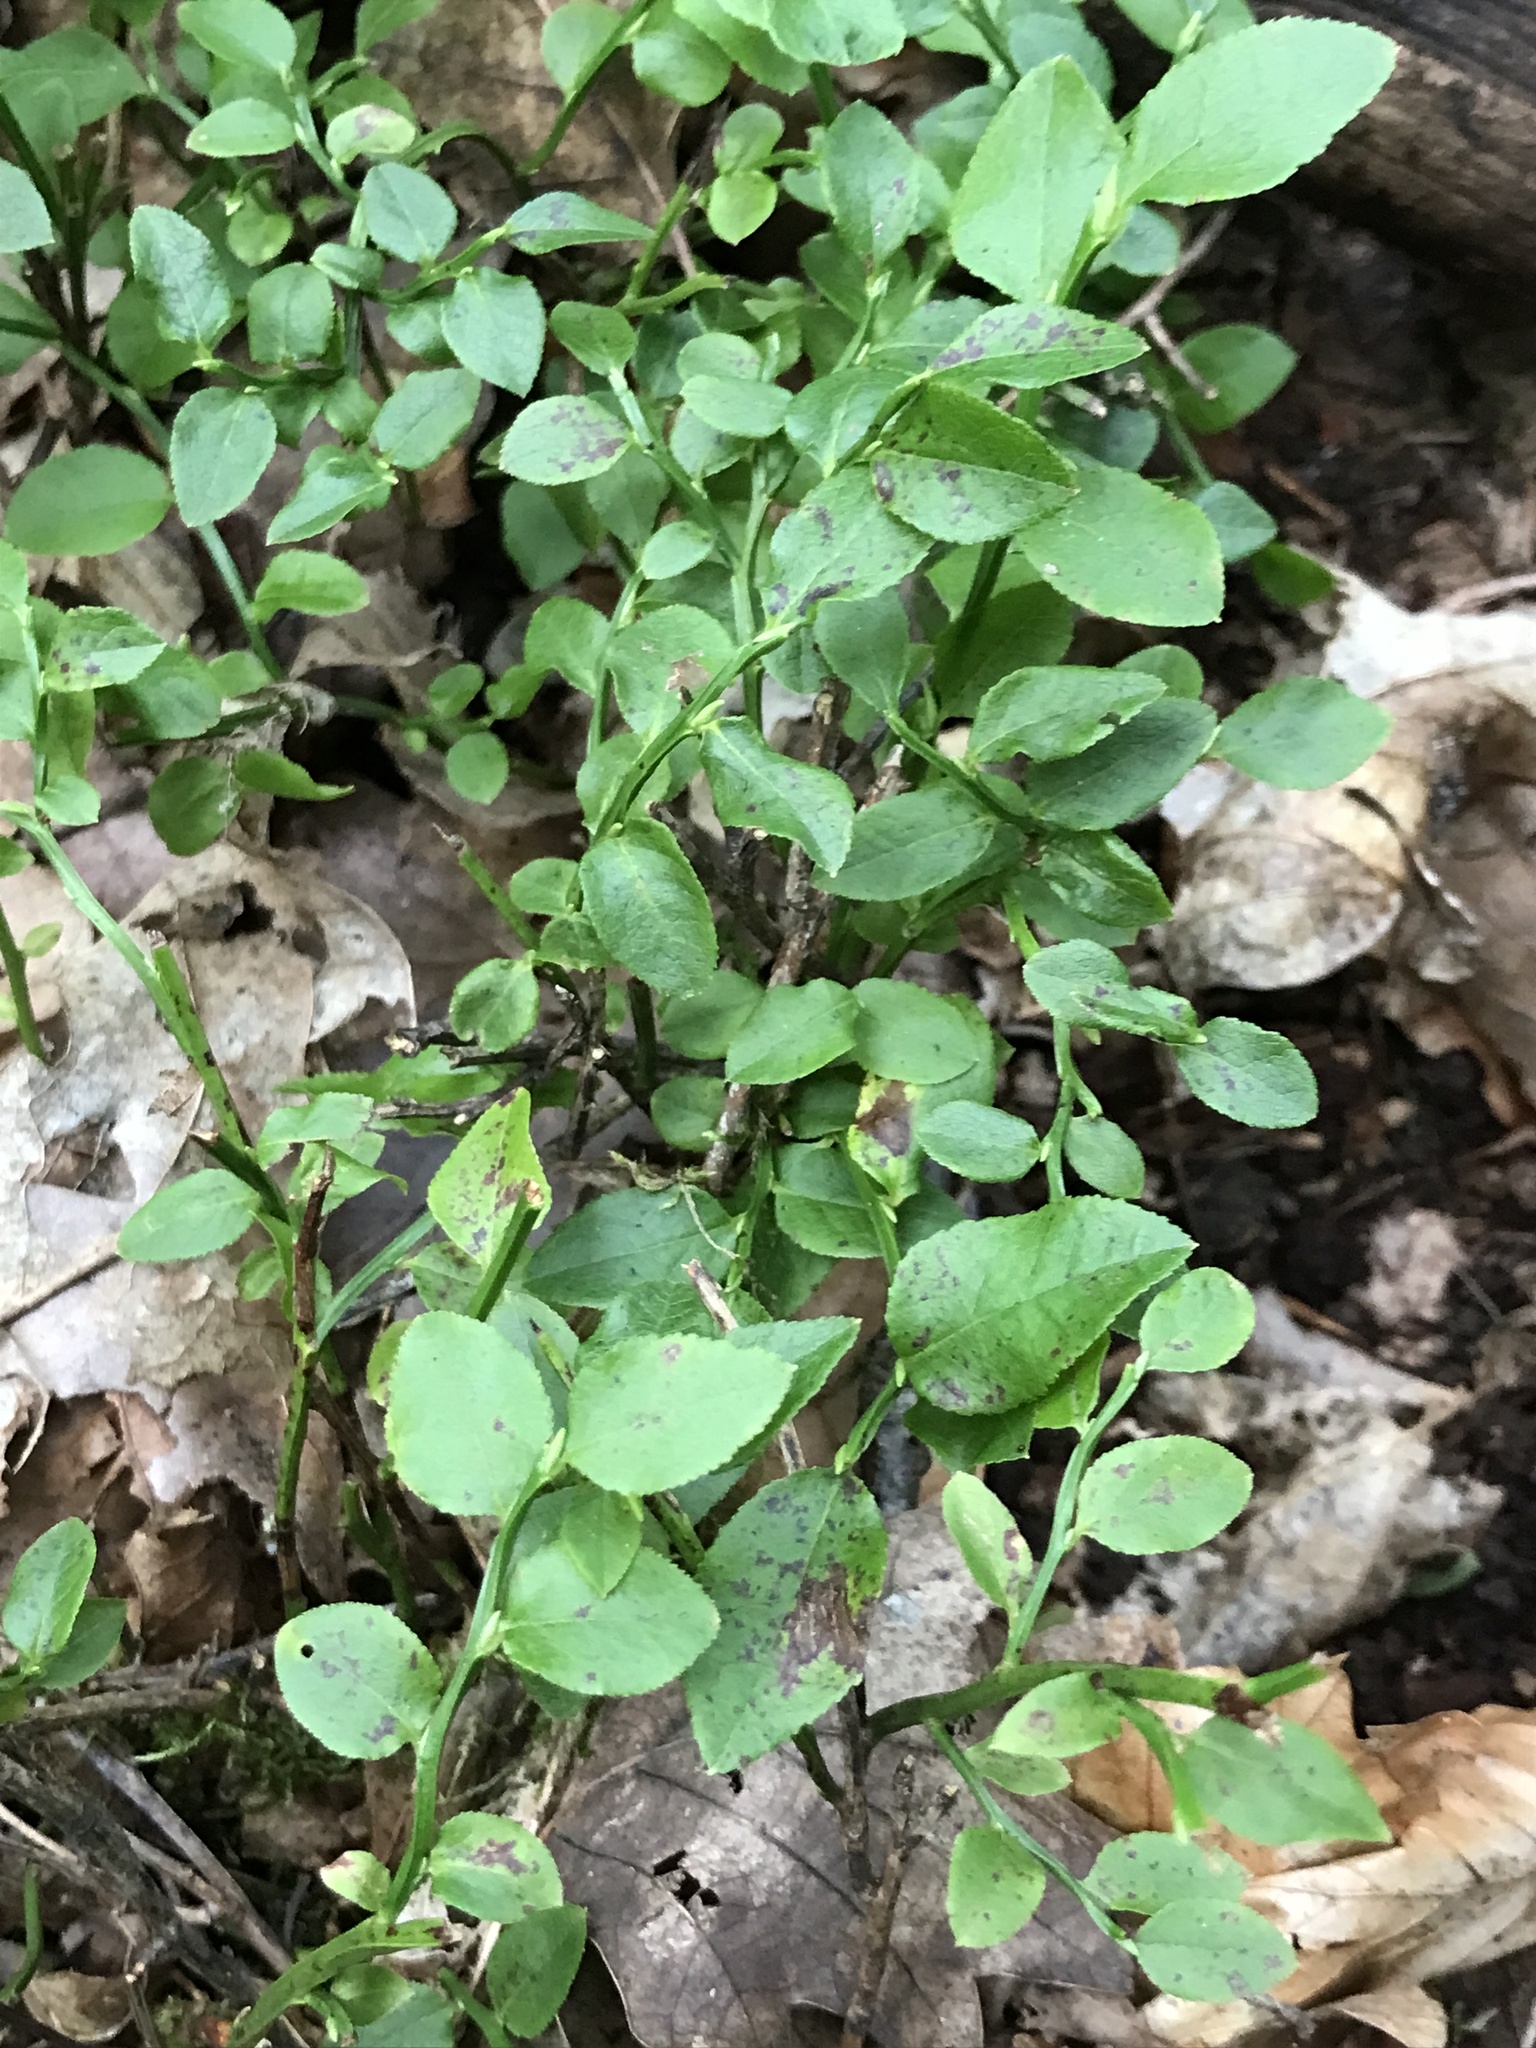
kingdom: Plantae
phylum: Tracheophyta
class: Magnoliopsida
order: Ericales
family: Ericaceae
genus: Vaccinium
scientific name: Vaccinium myrtillus
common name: Bilberry
